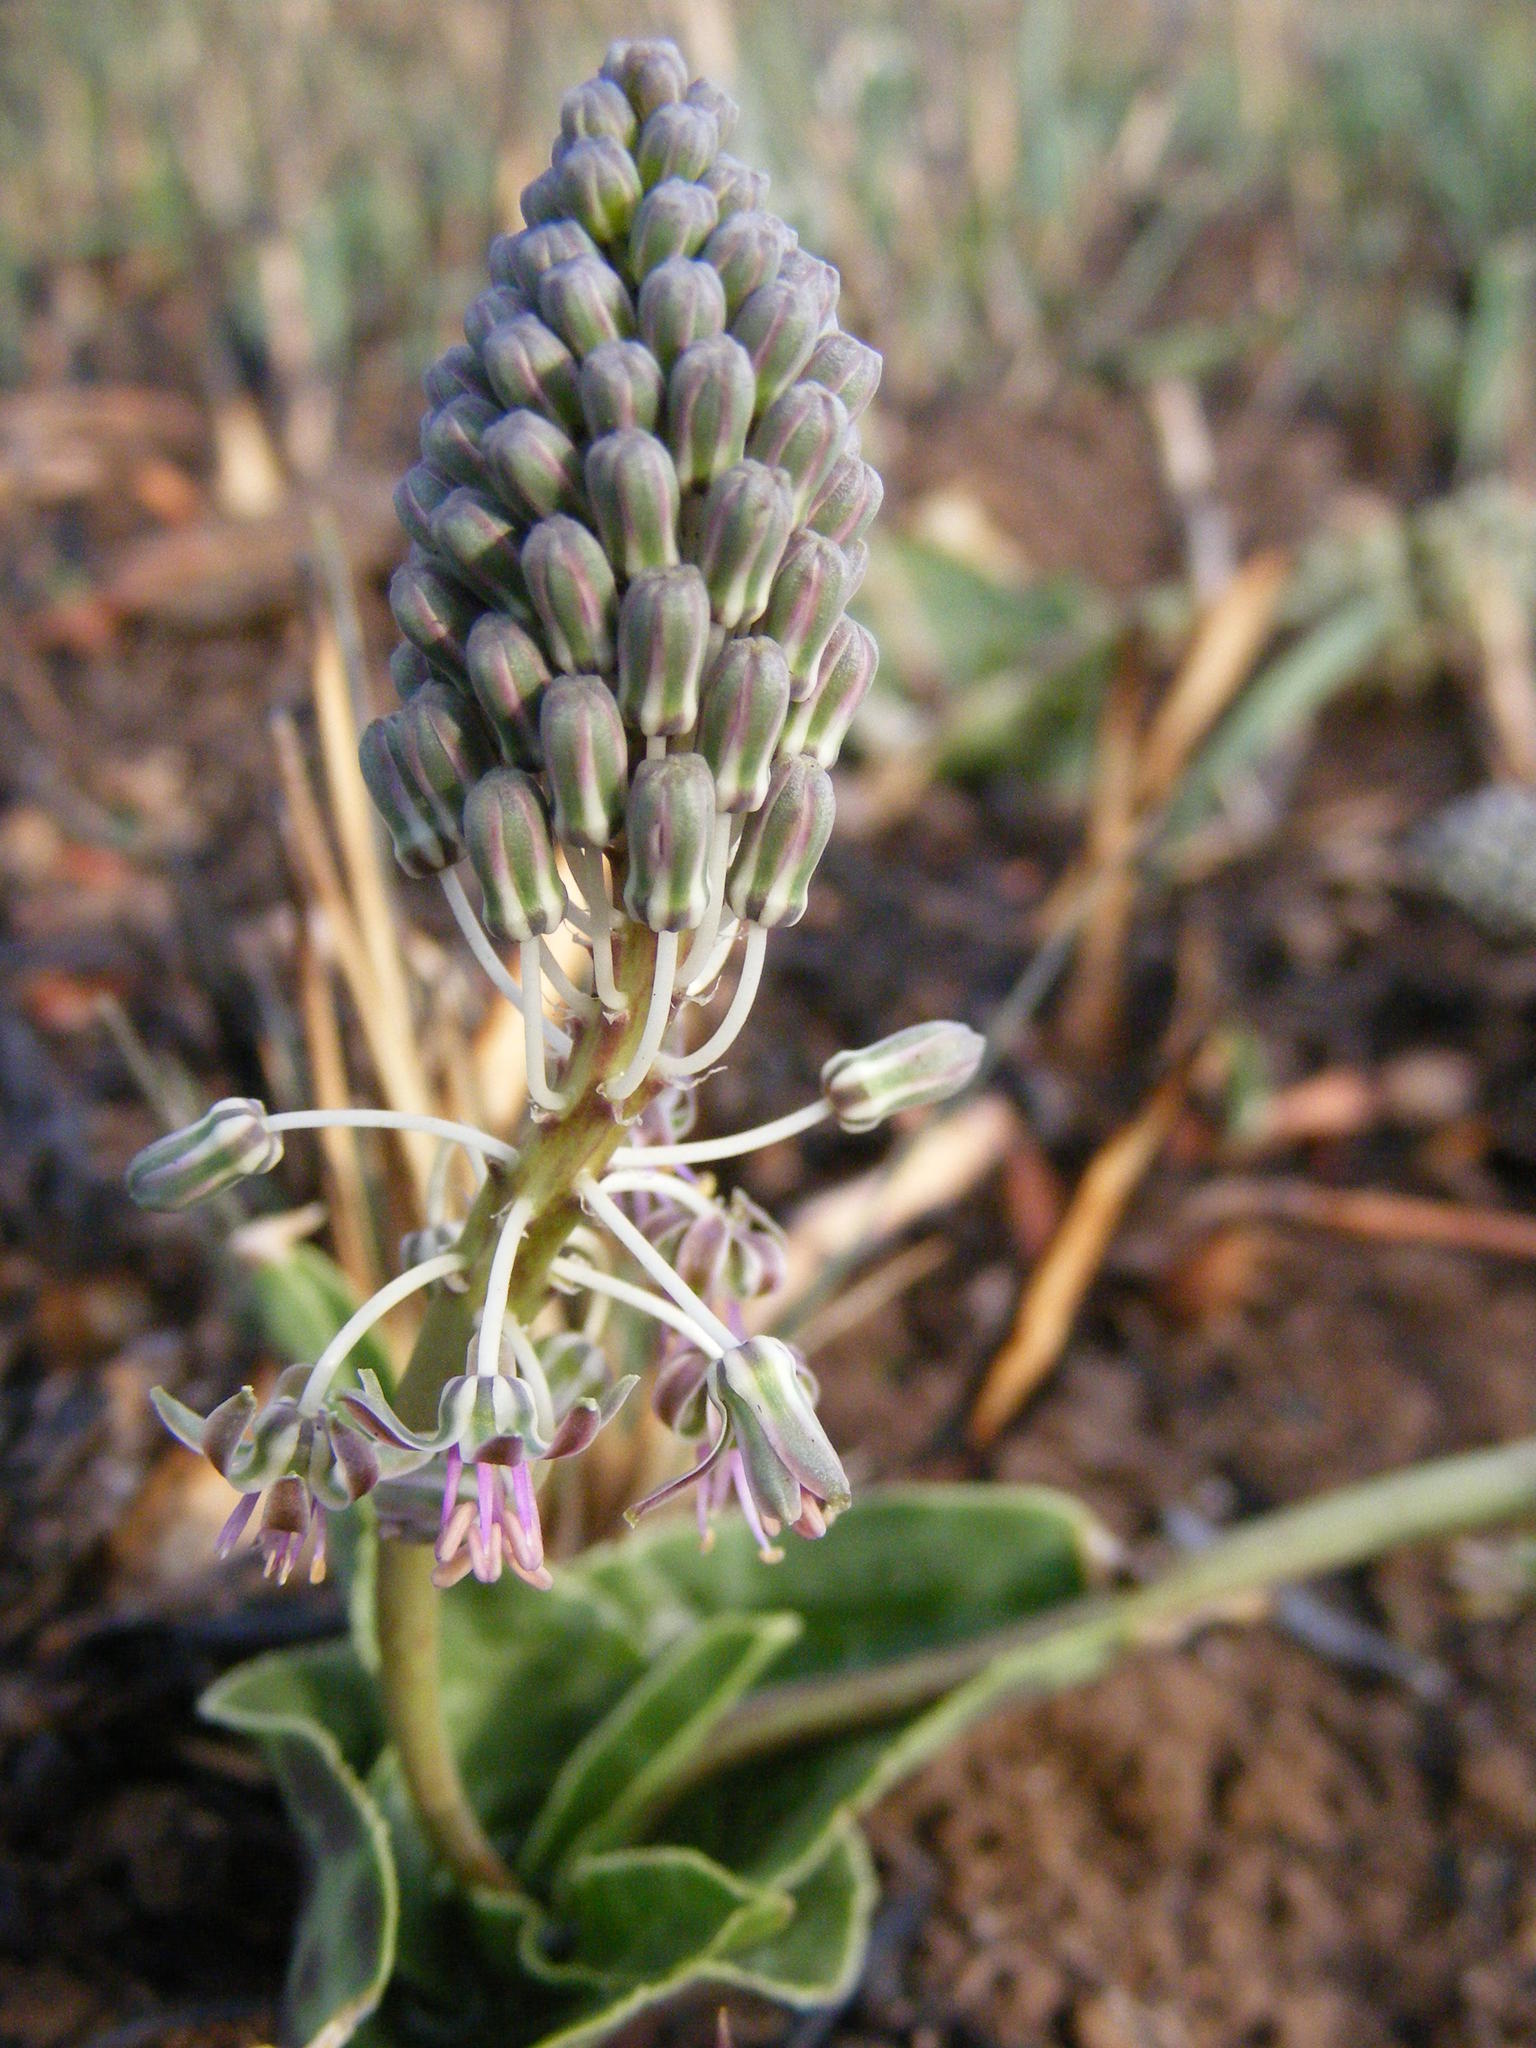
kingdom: Plantae
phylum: Tracheophyta
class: Liliopsida
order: Asparagales
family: Asparagaceae
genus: Ledebouria
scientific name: Ledebouria revoluta
